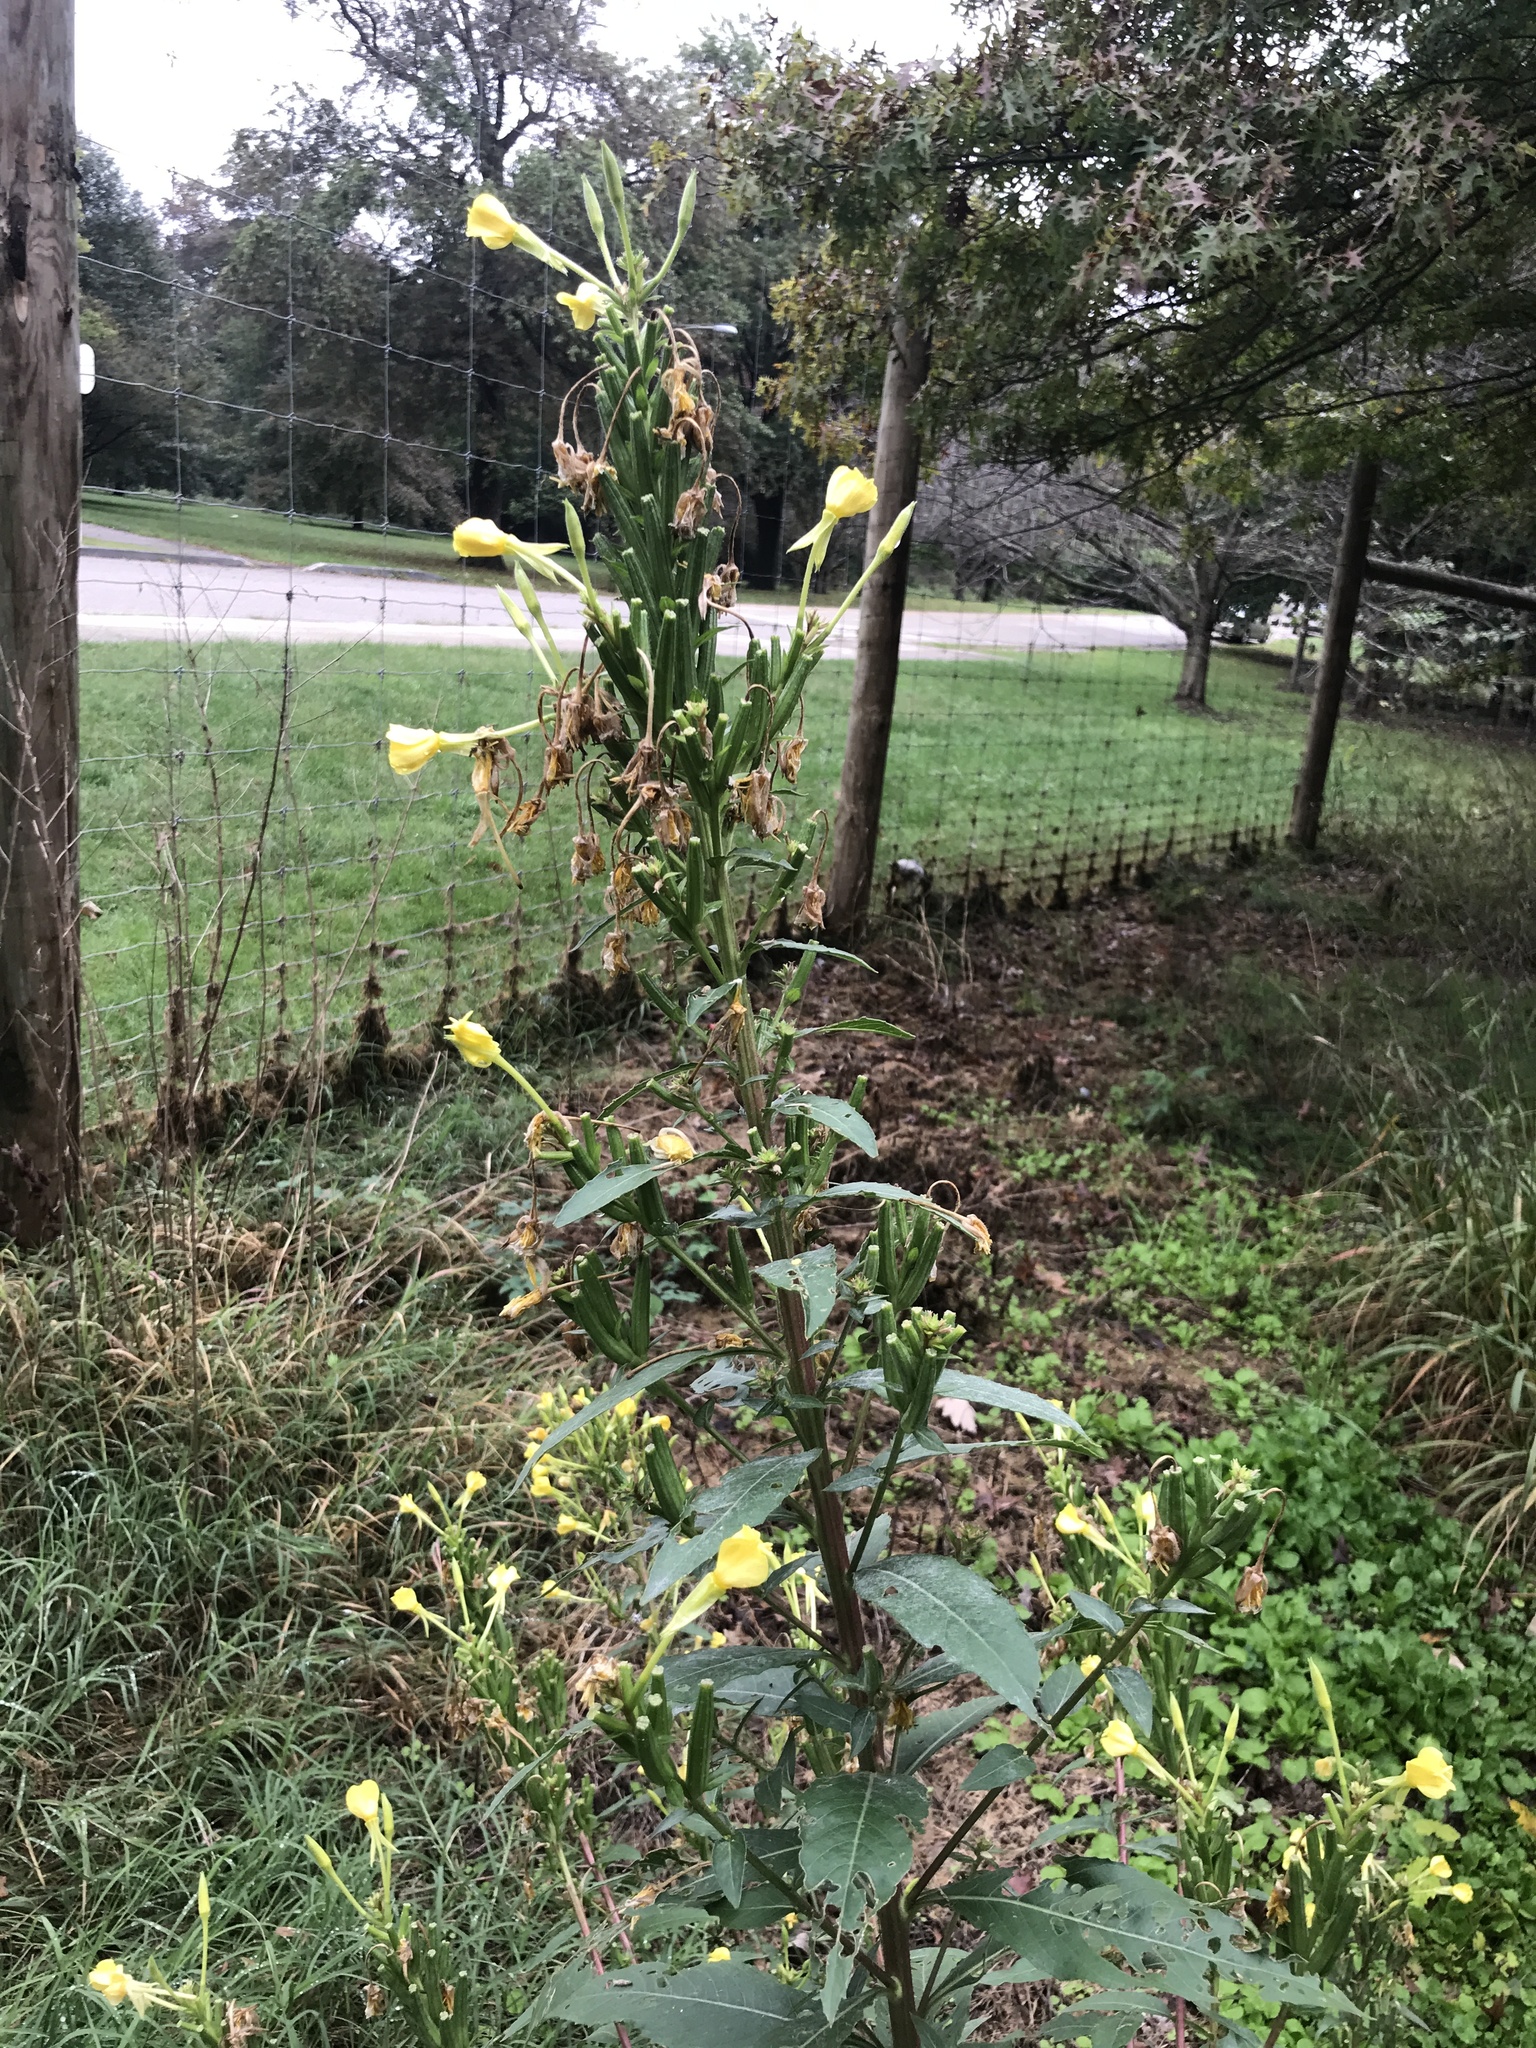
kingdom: Plantae
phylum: Tracheophyta
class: Magnoliopsida
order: Myrtales
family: Onagraceae
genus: Oenothera
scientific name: Oenothera biennis
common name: Common evening-primrose
